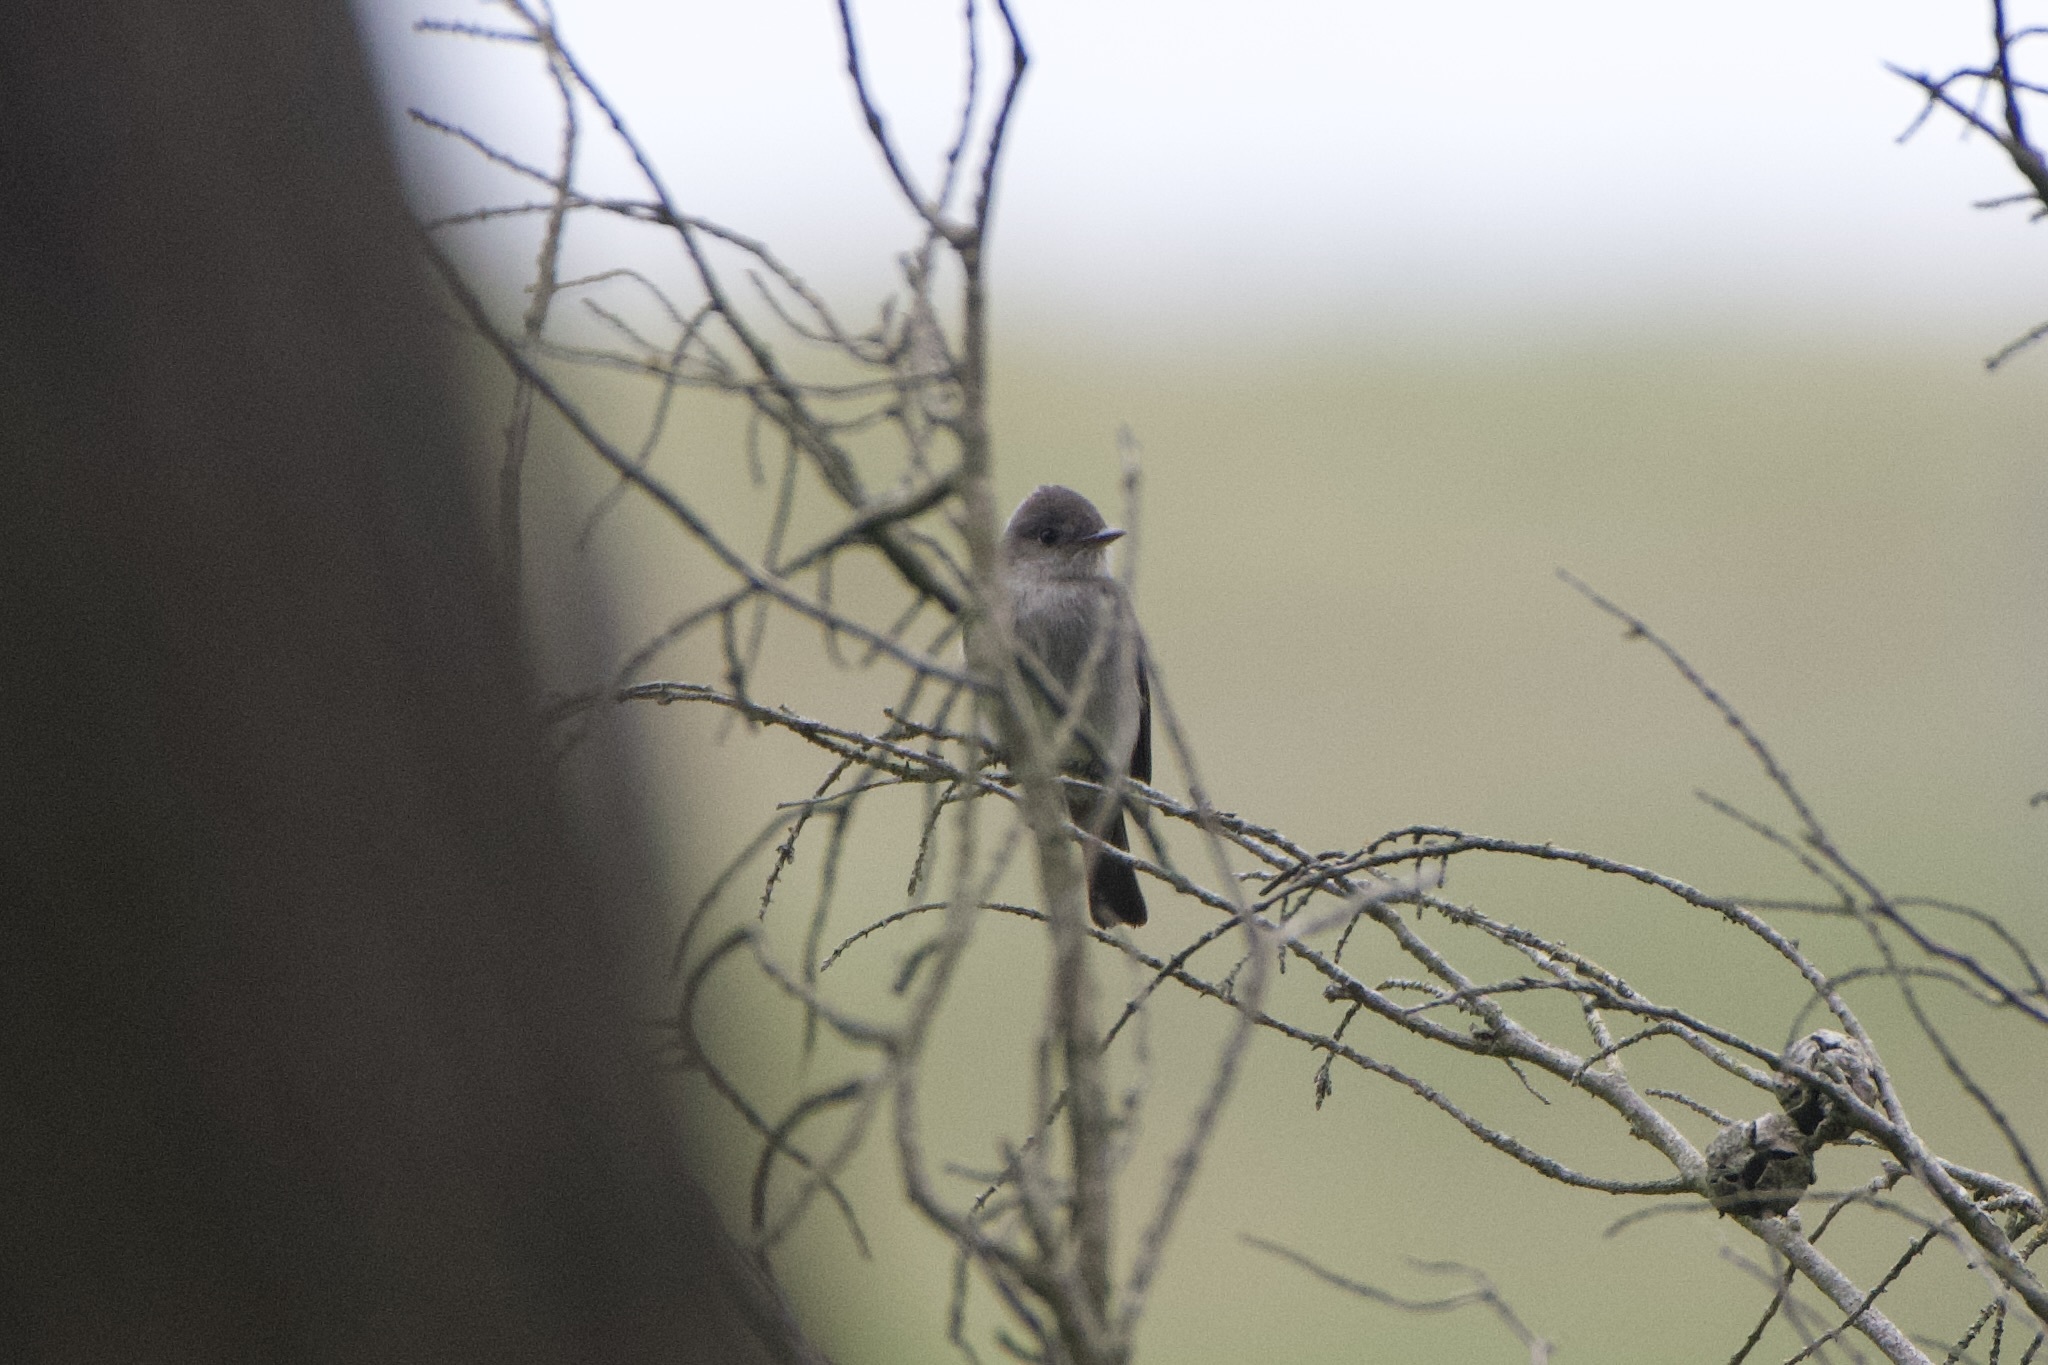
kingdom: Animalia
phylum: Chordata
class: Aves
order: Passeriformes
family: Tyrannidae
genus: Contopus
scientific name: Contopus sordidulus
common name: Western wood-pewee
